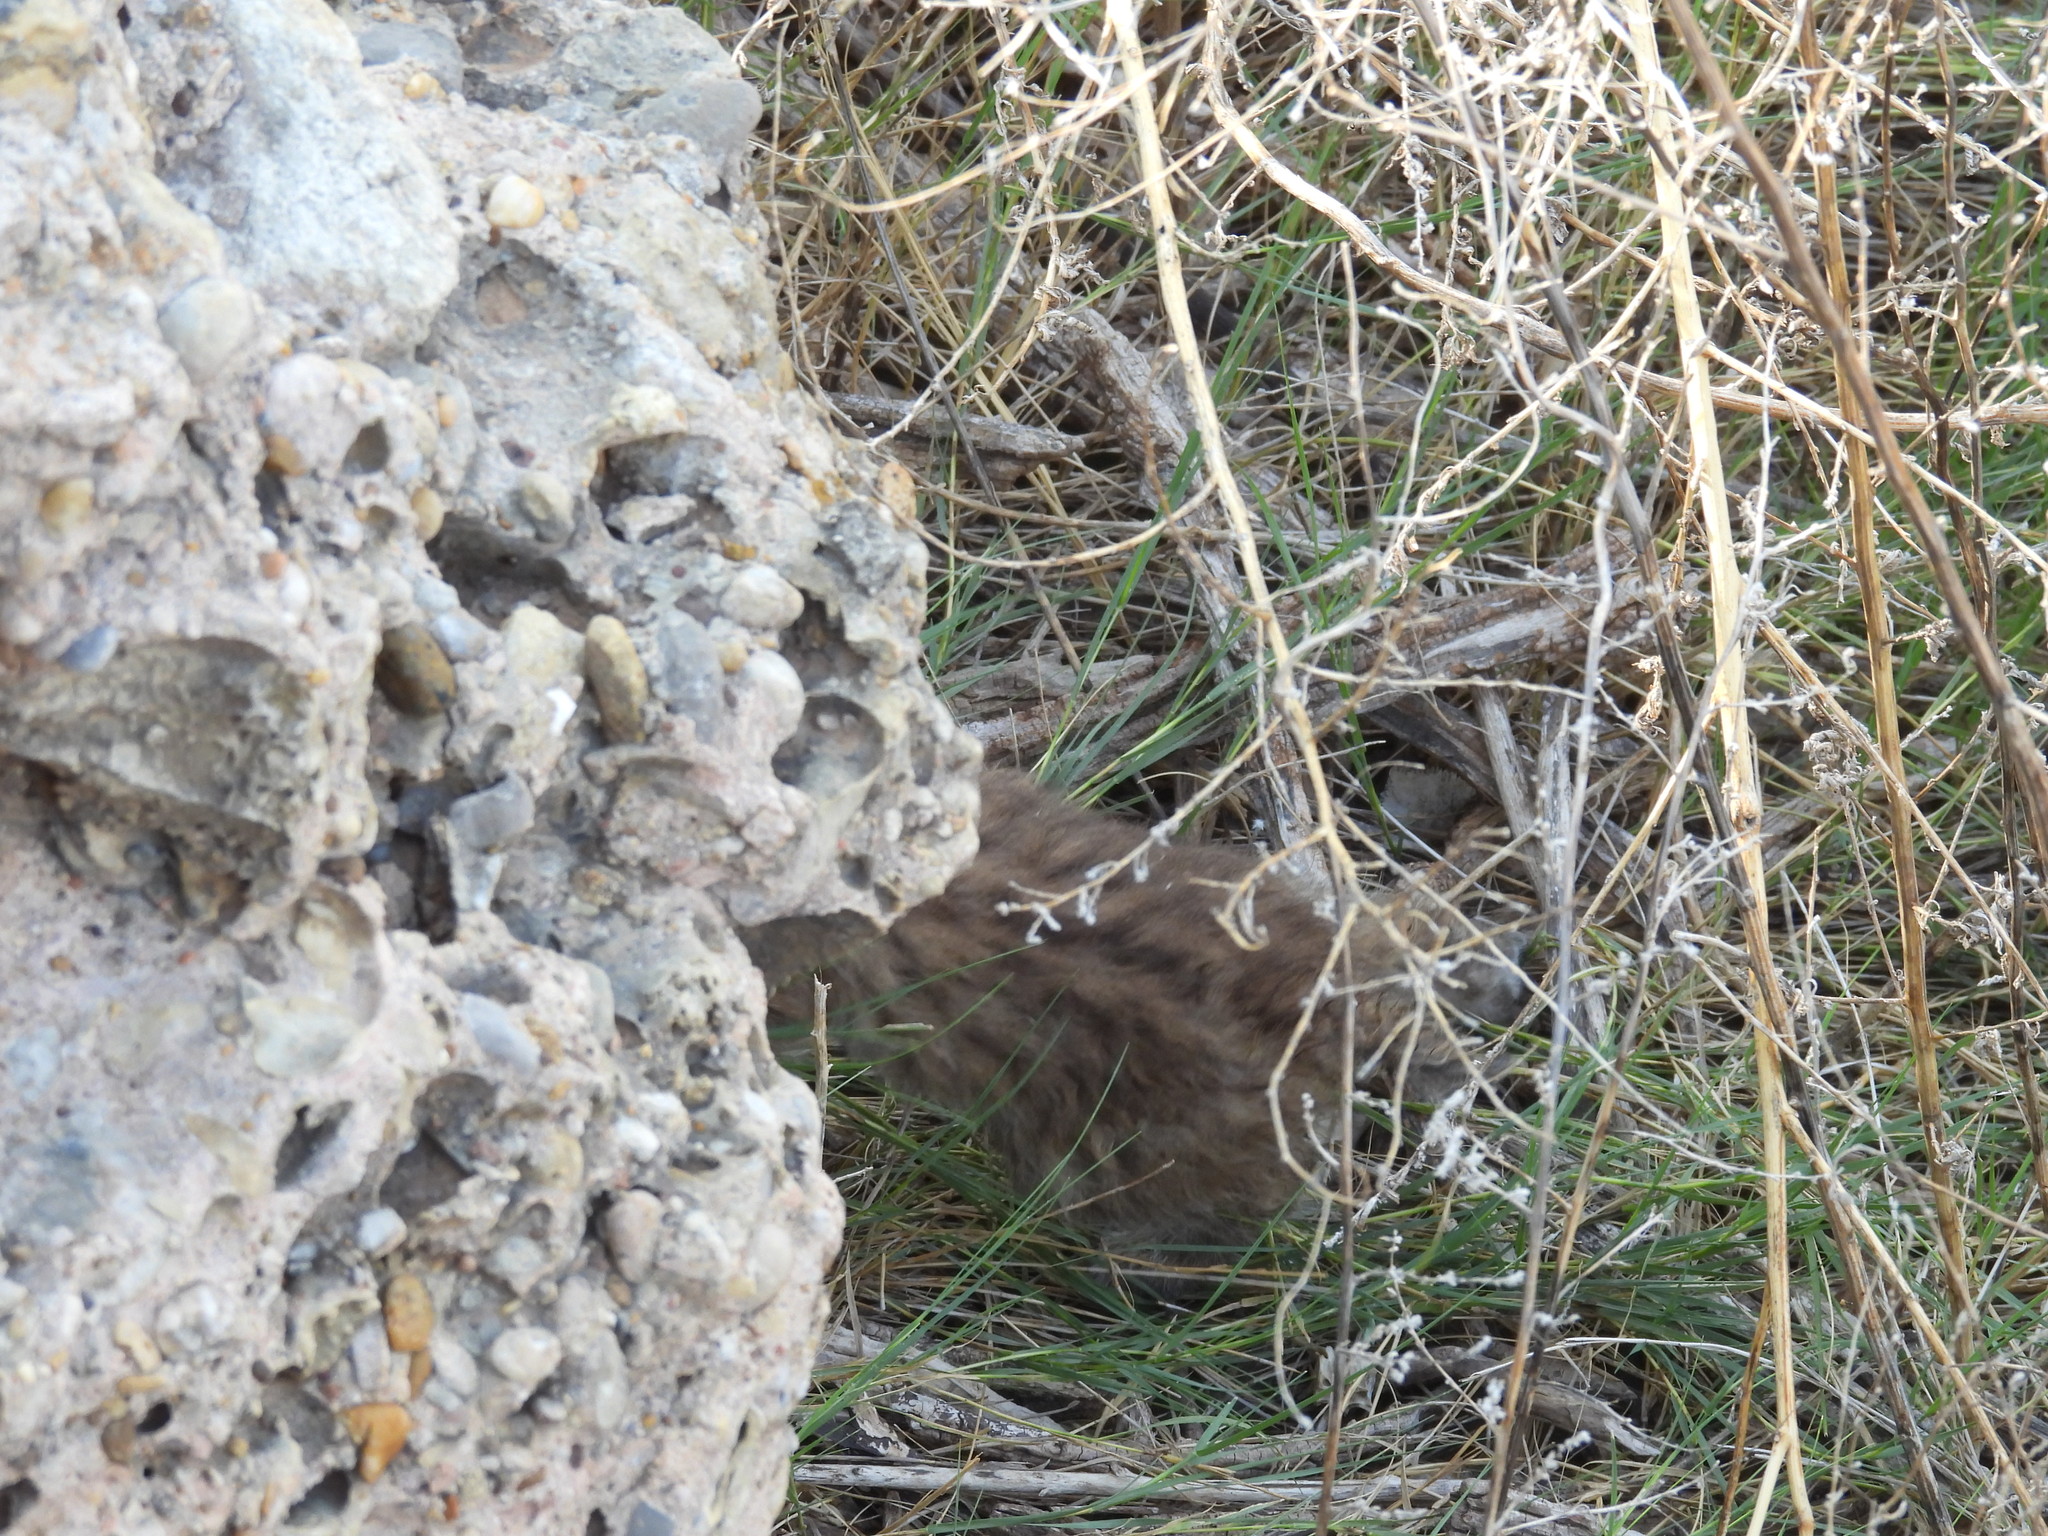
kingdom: Animalia
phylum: Chordata
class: Mammalia
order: Carnivora
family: Felidae
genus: Lynx
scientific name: Lynx rufus
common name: Bobcat
